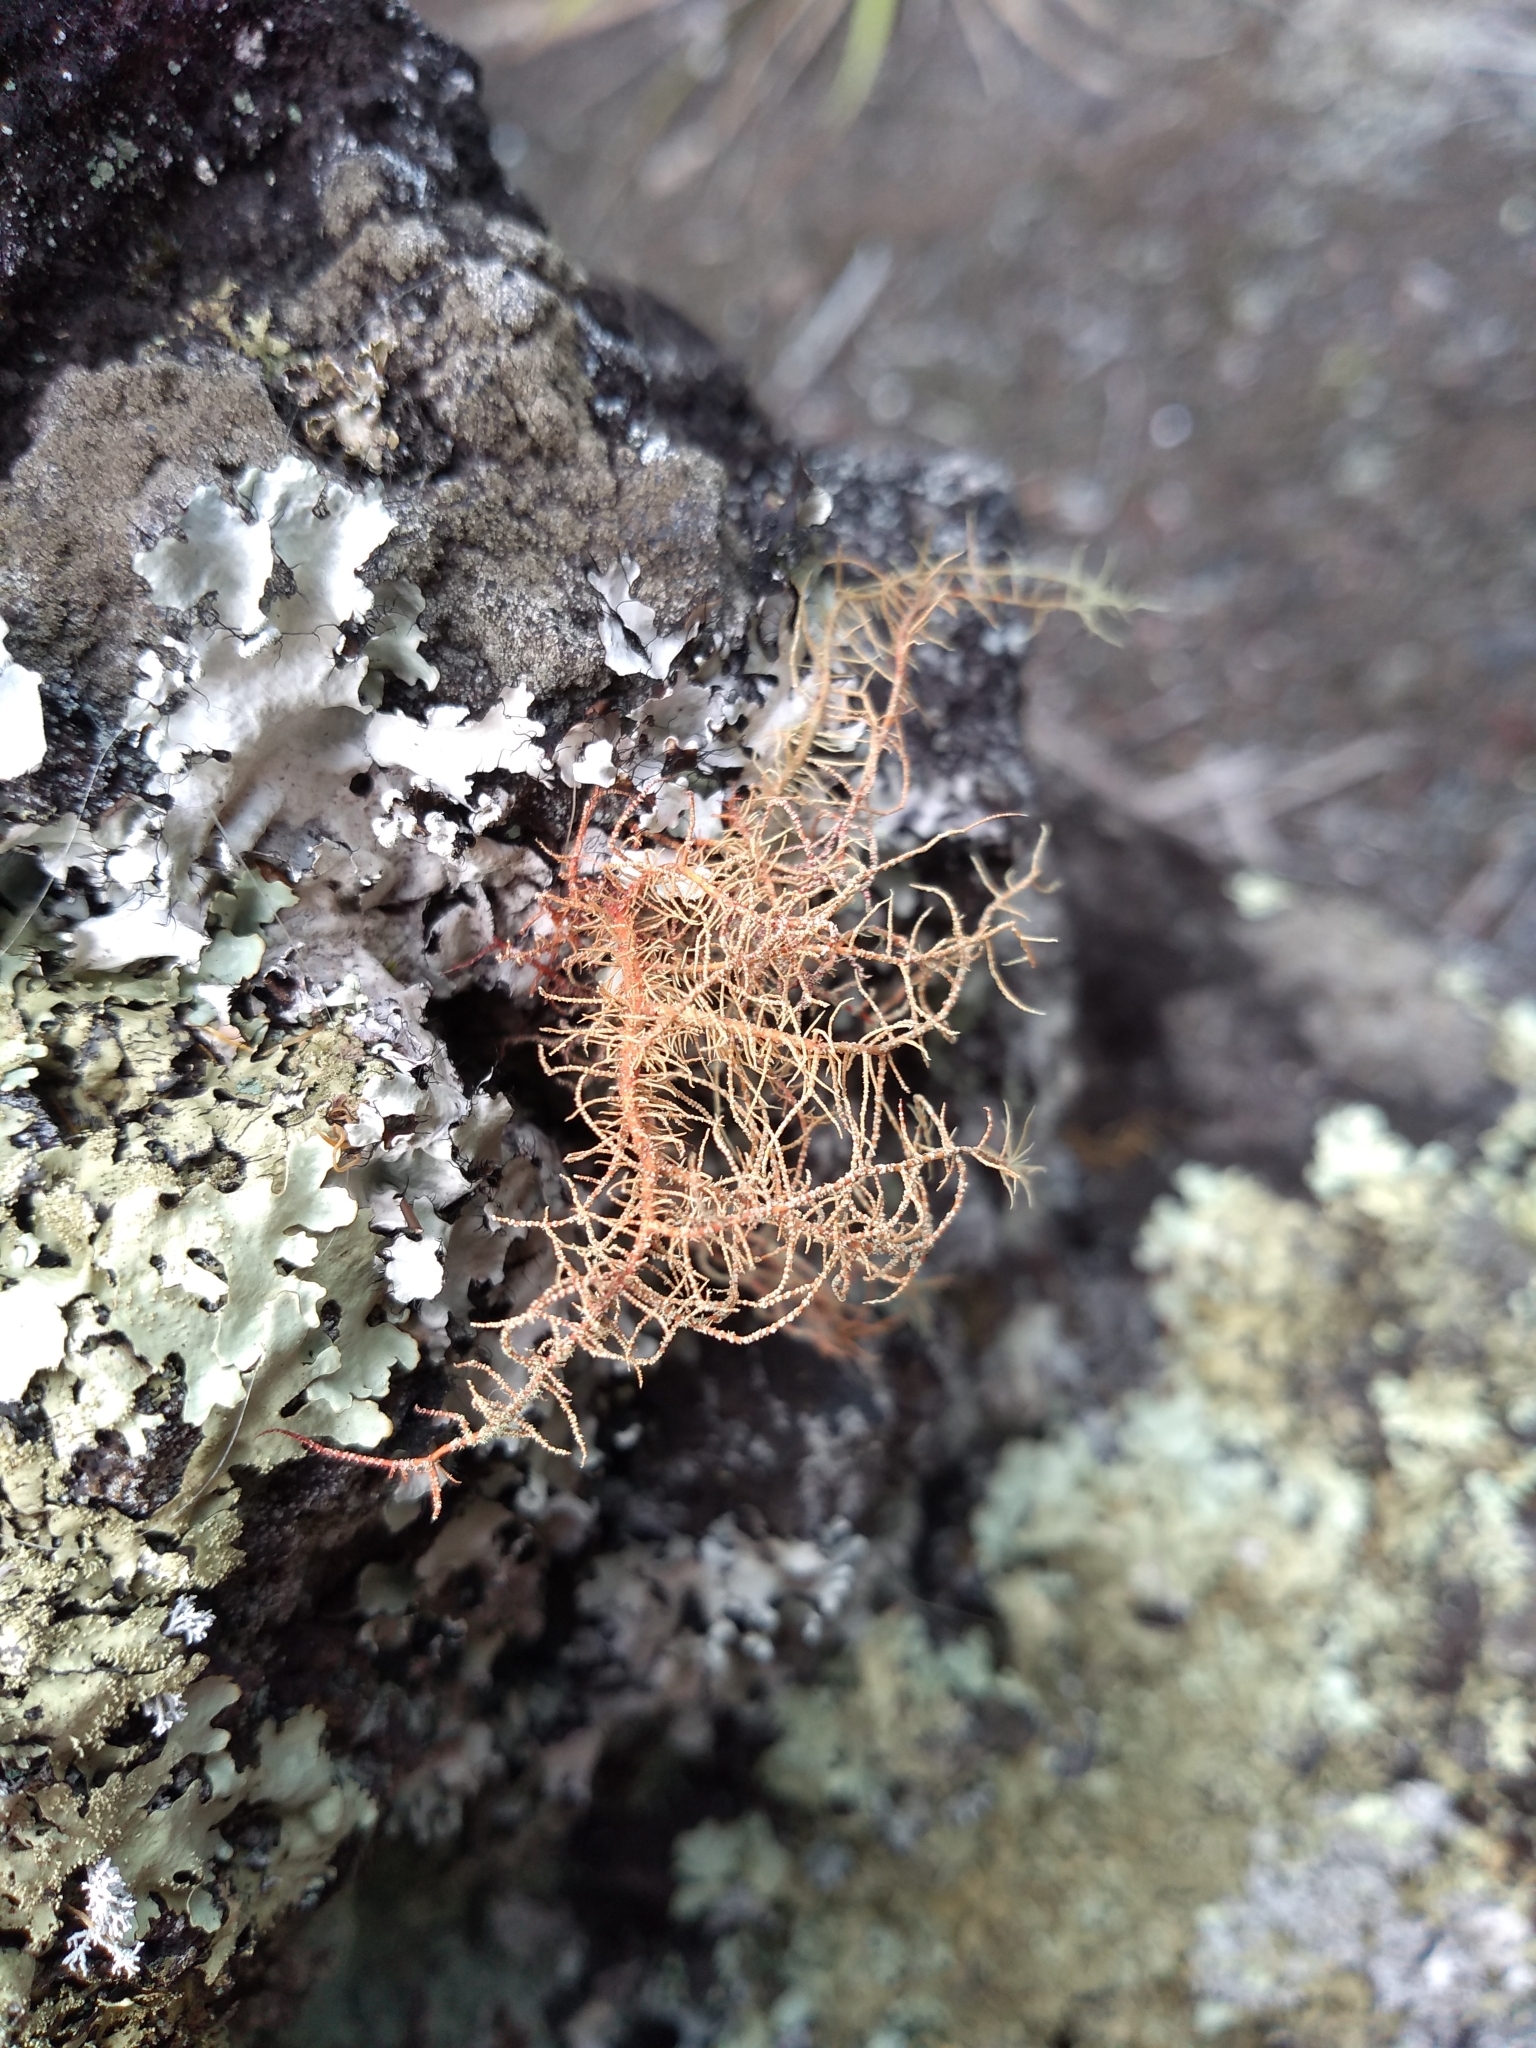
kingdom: Fungi
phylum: Ascomycota
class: Lecanoromycetes
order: Lecanorales
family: Parmeliaceae
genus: Usnea
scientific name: Usnea rubicunda
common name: Red beard lichen
